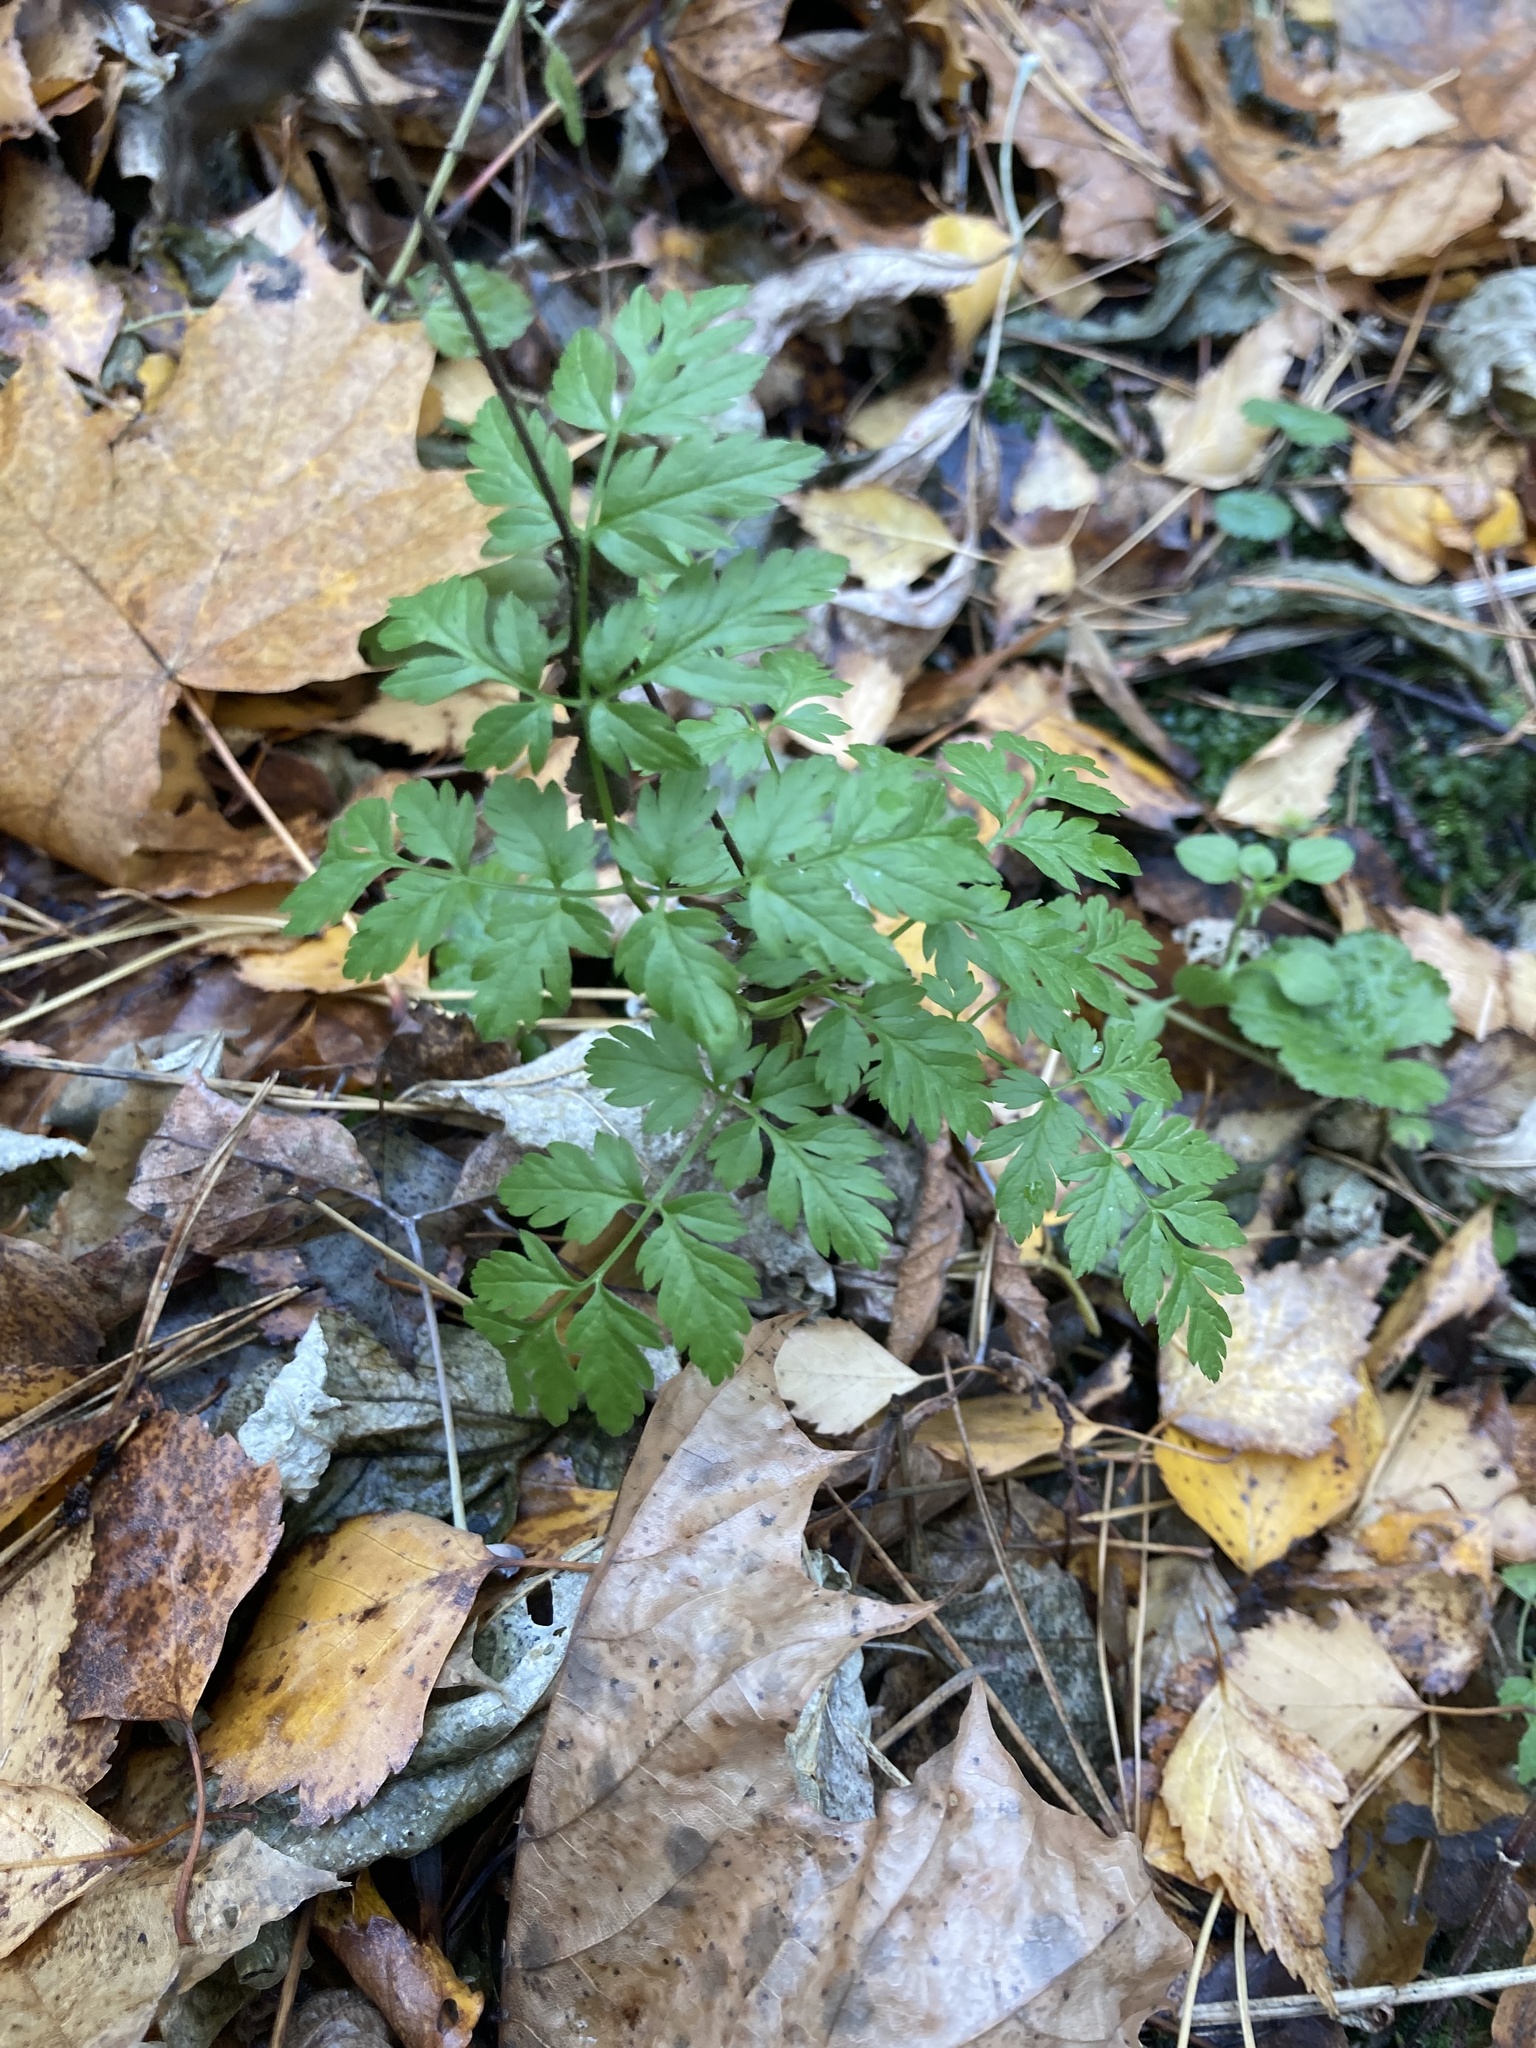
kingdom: Plantae
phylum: Tracheophyta
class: Magnoliopsida
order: Apiales
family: Apiaceae
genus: Anthriscus
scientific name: Anthriscus sylvestris
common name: Cow parsley
